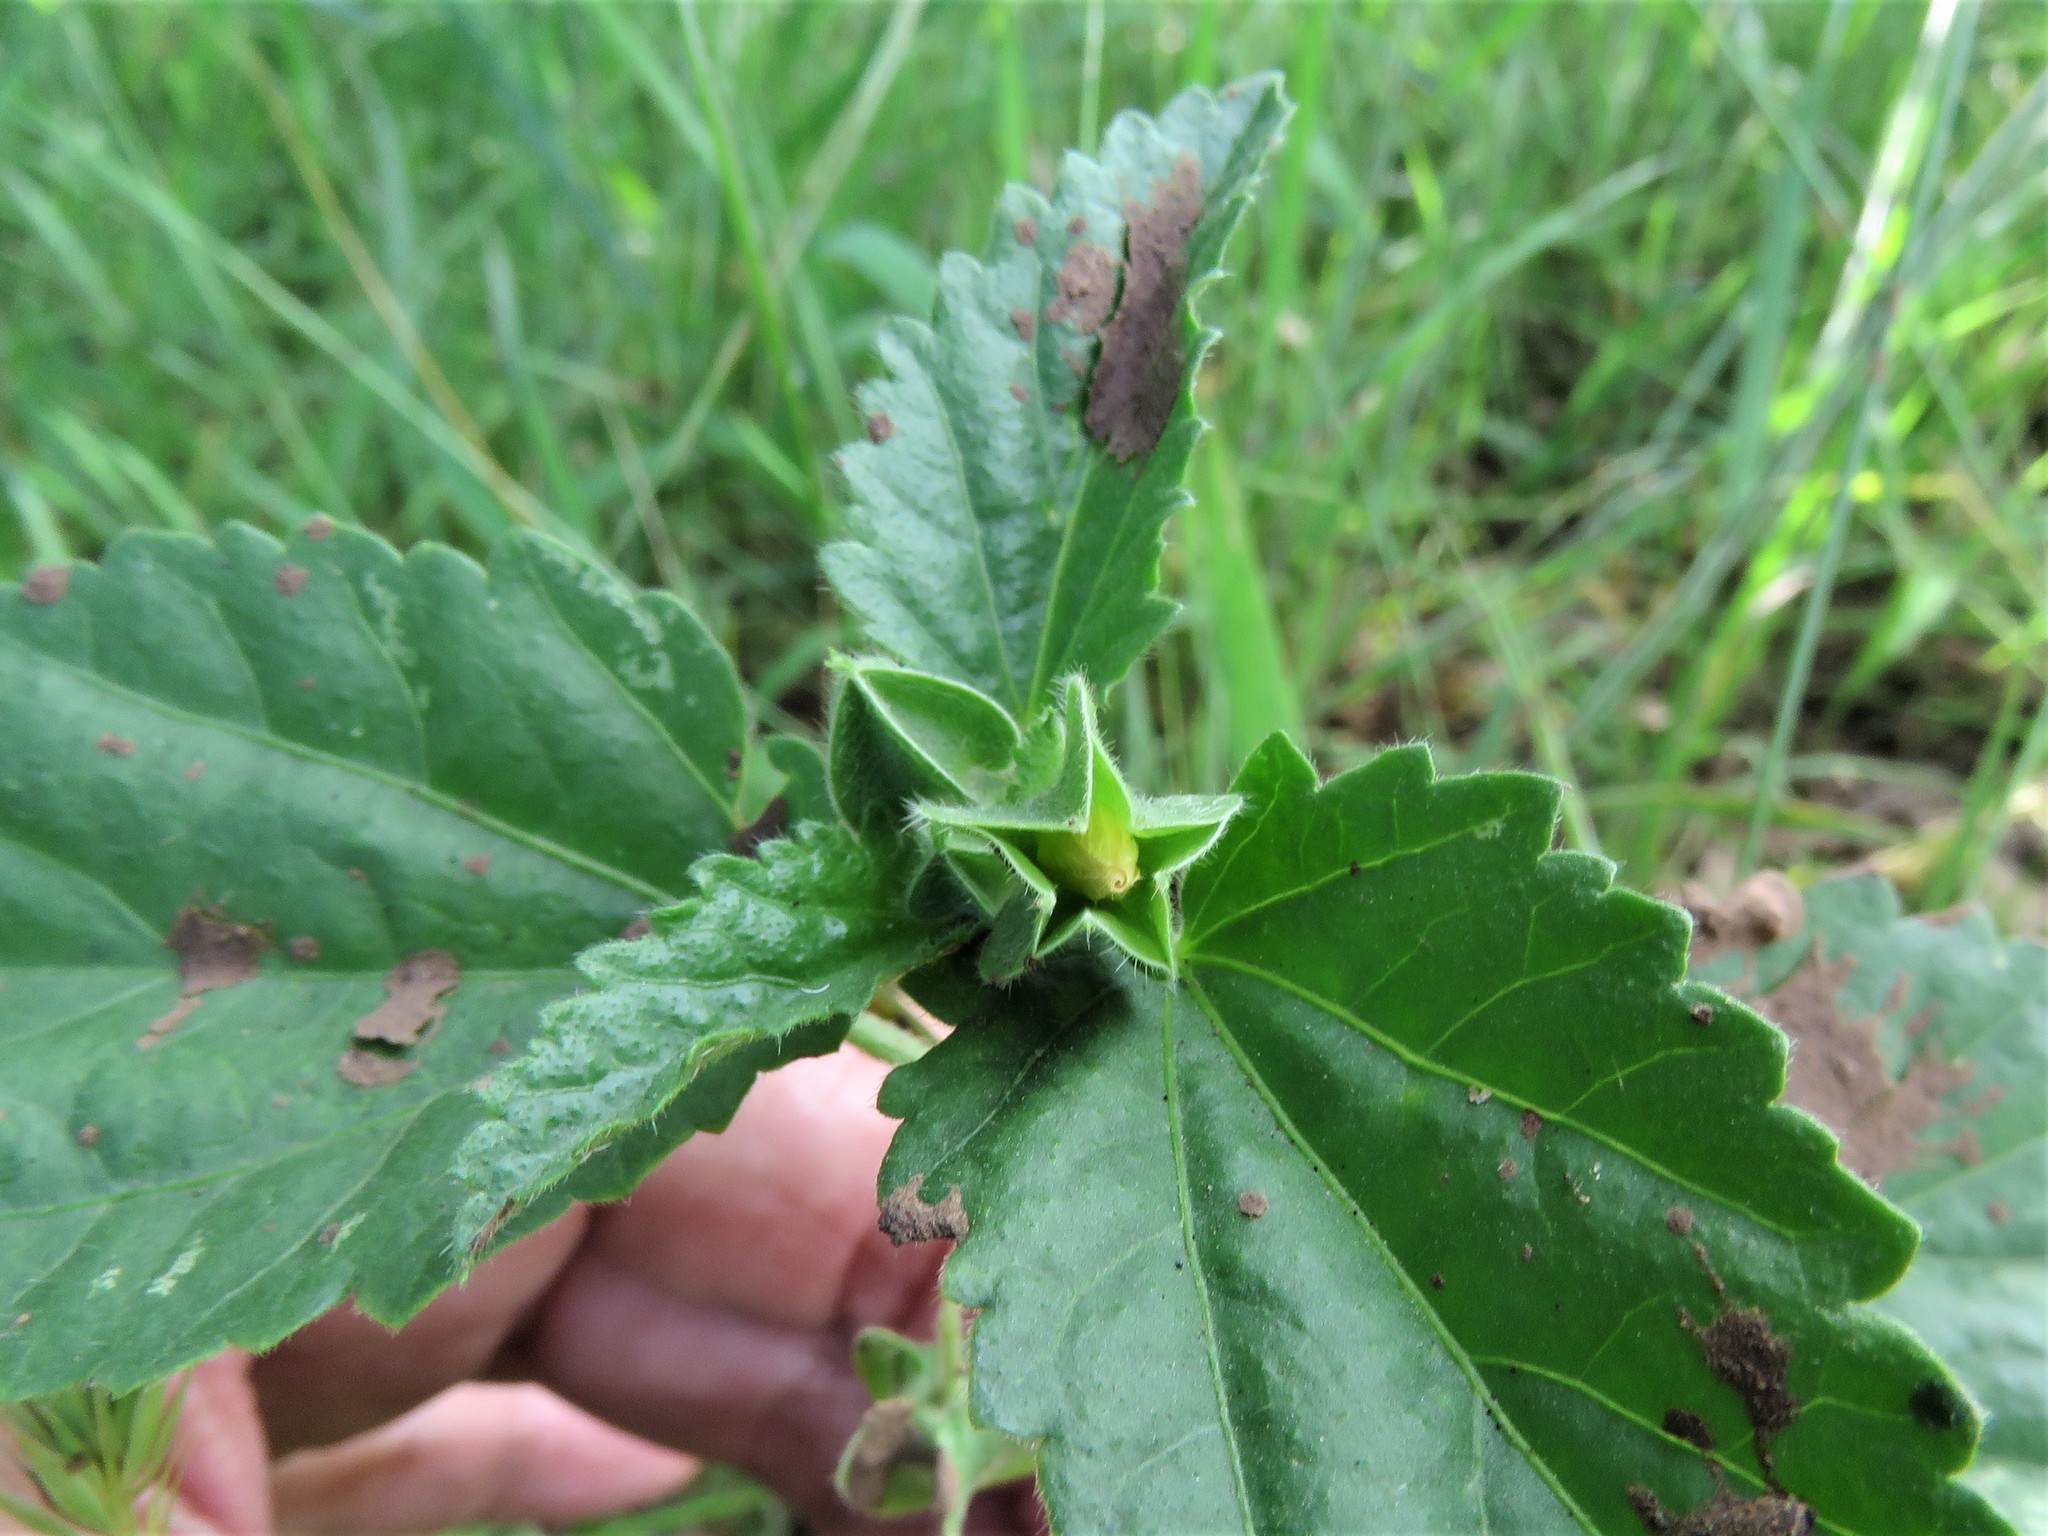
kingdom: Plantae
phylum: Tracheophyta
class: Magnoliopsida
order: Malvales
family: Malvaceae
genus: Rhynchosida
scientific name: Rhynchosida physocalyx
